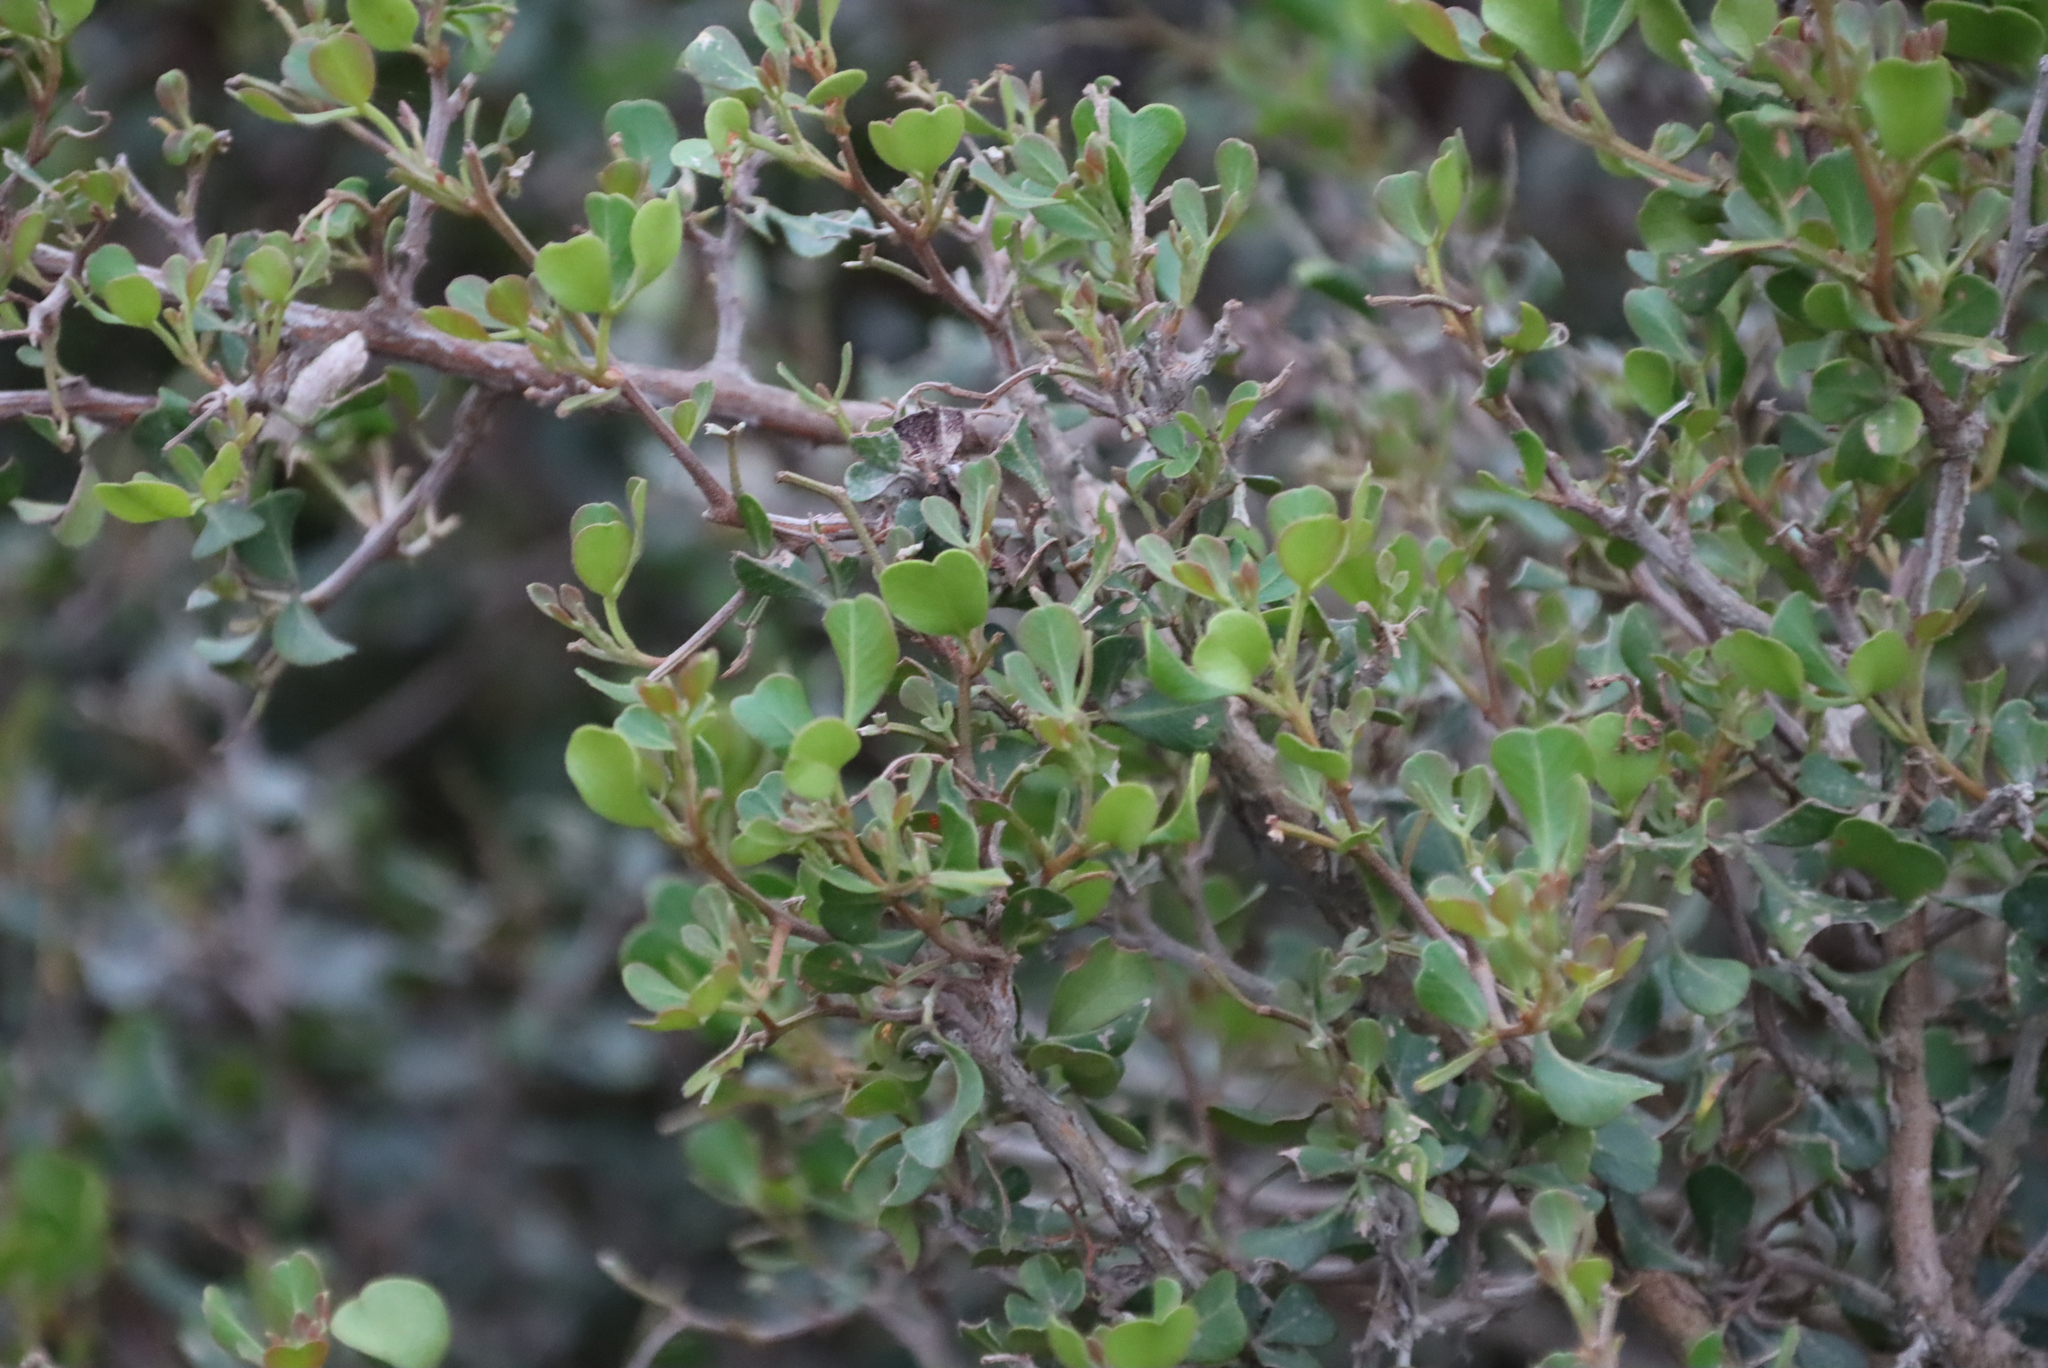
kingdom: Plantae
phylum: Tracheophyta
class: Magnoliopsida
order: Sapindales
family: Anacardiaceae
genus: Searsia
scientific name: Searsia glauca
